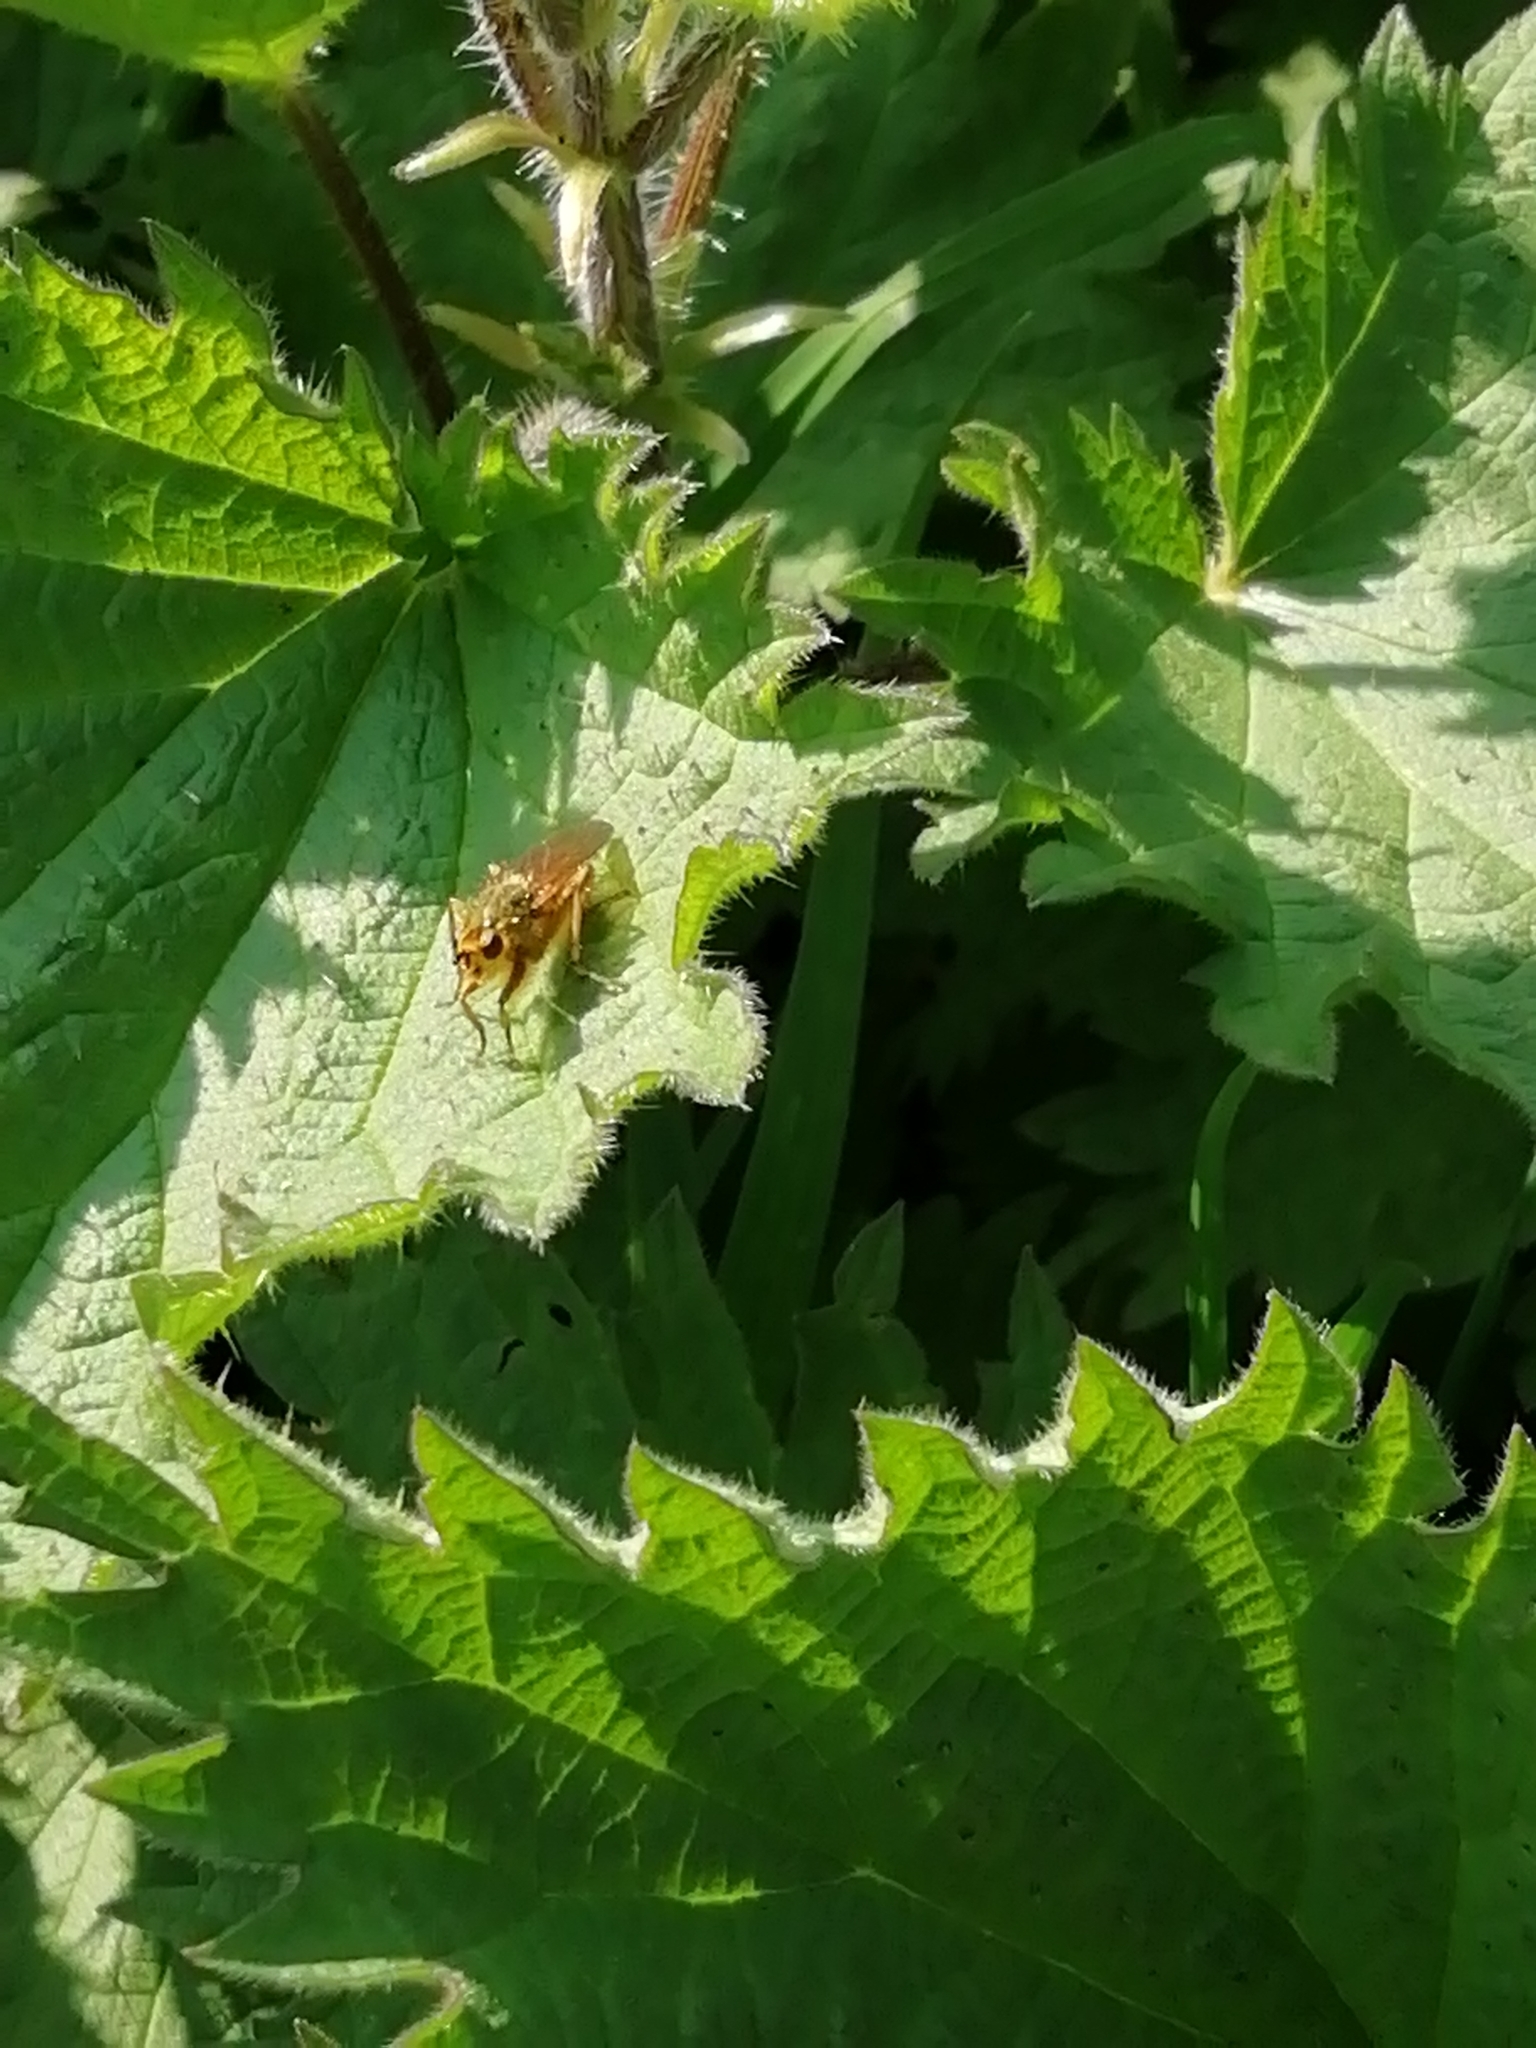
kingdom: Animalia
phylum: Arthropoda
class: Insecta
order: Diptera
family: Scathophagidae
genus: Scathophaga
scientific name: Scathophaga stercoraria
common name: Yellow dung fly
